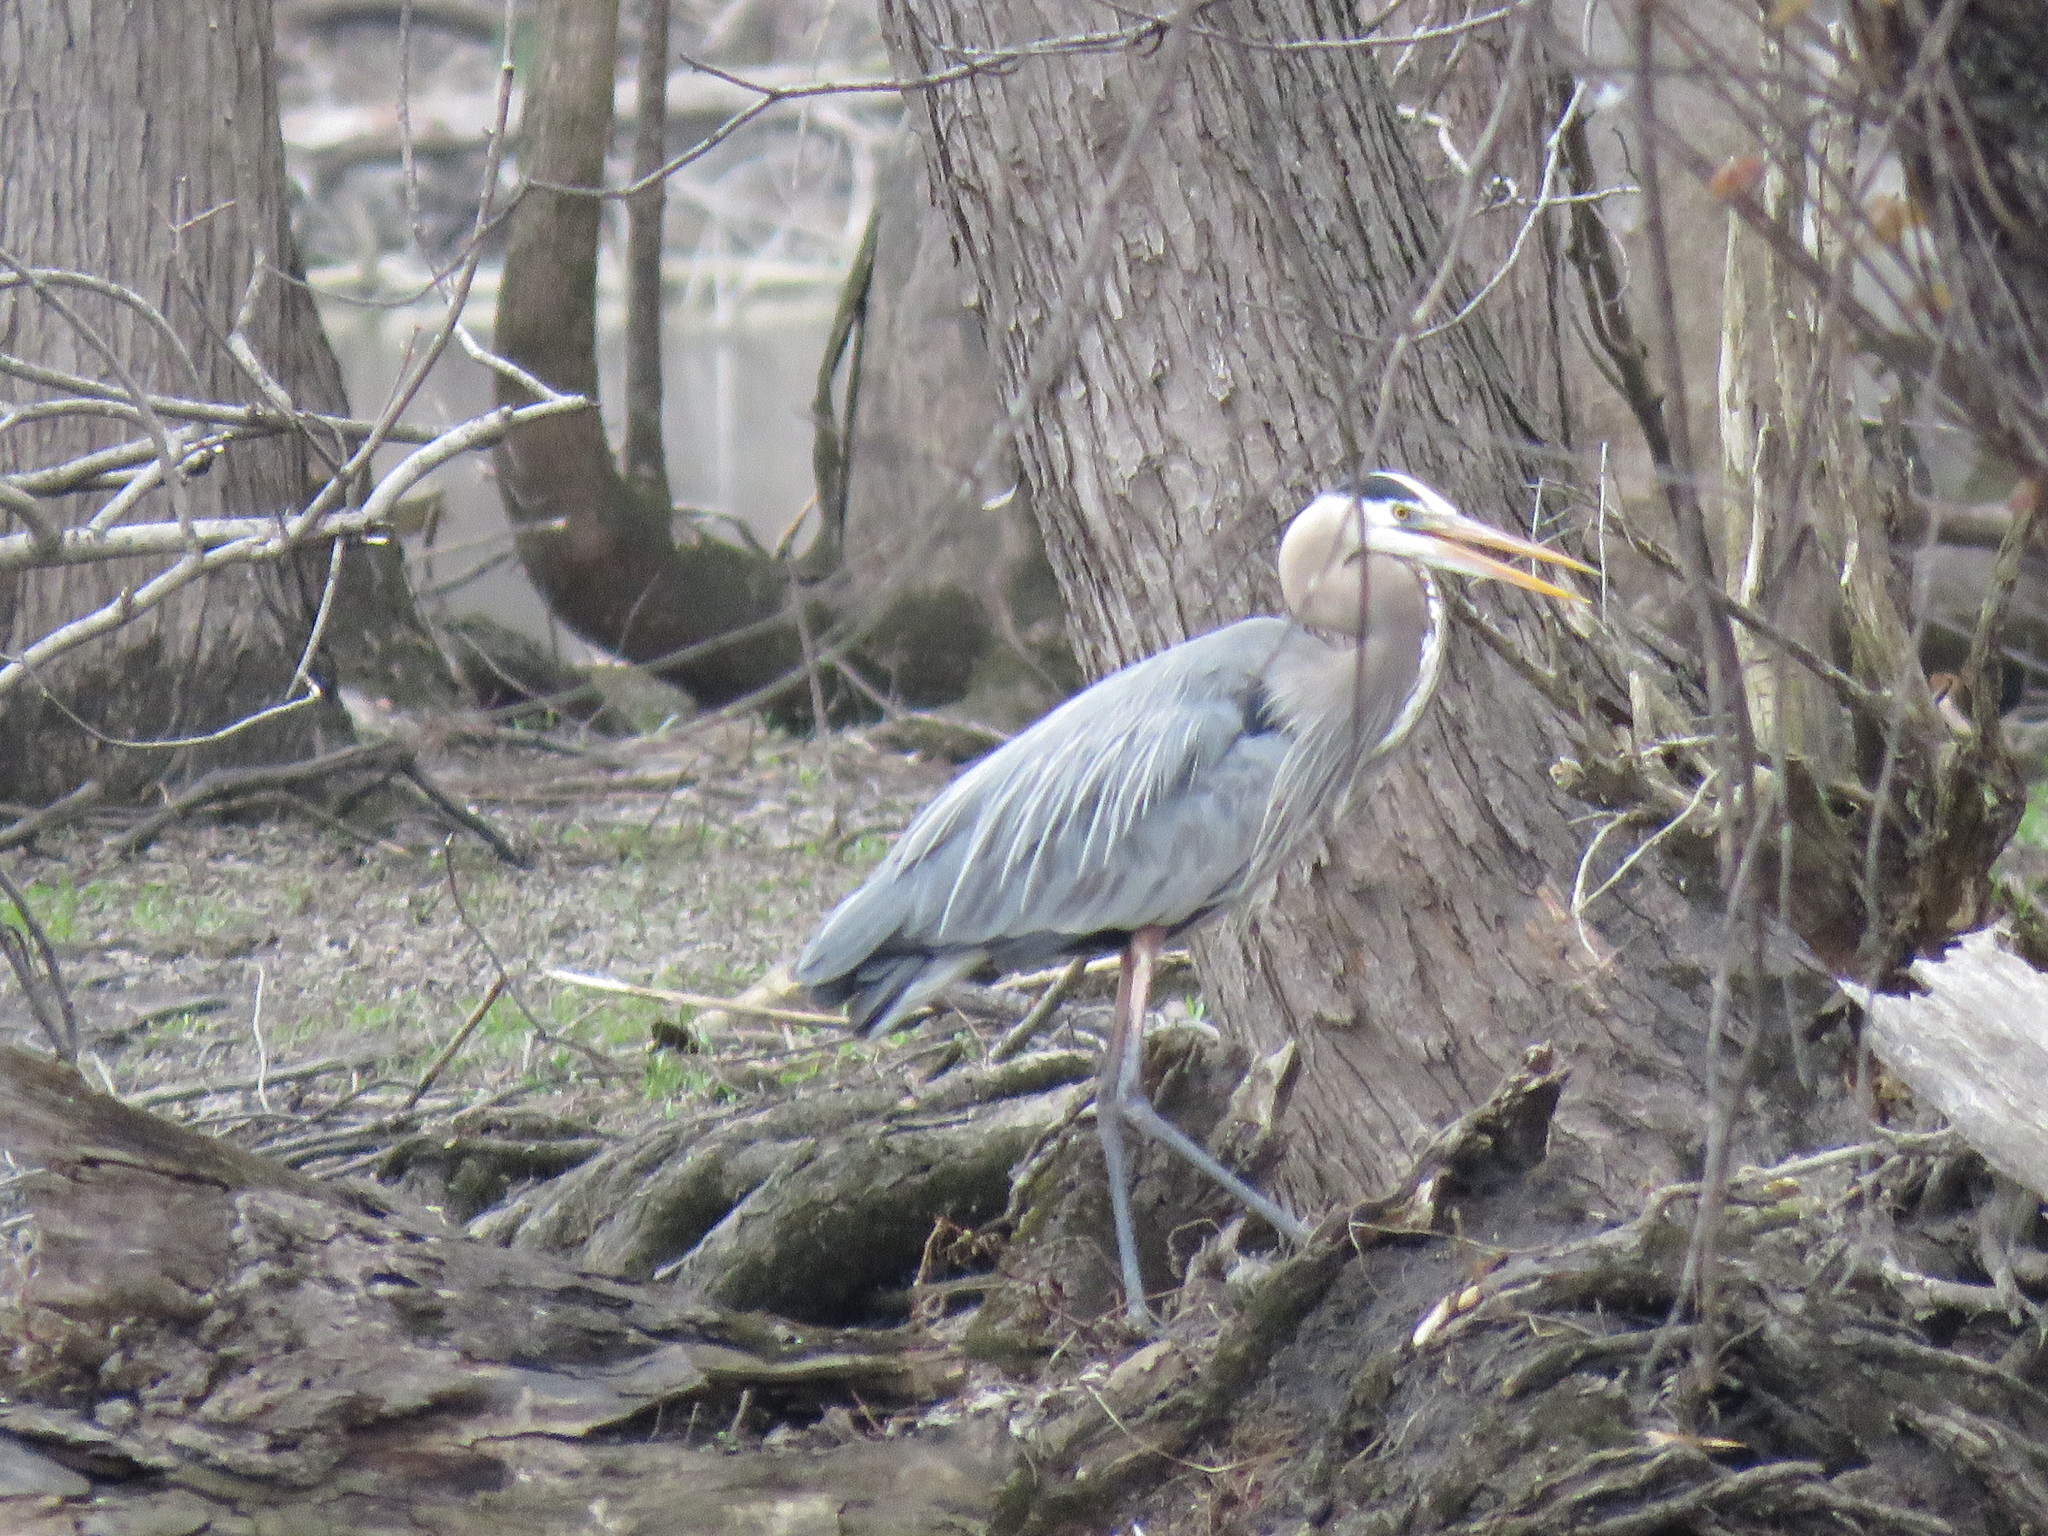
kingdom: Animalia
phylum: Chordata
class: Aves
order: Pelecaniformes
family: Ardeidae
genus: Ardea
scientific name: Ardea herodias
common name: Great blue heron
